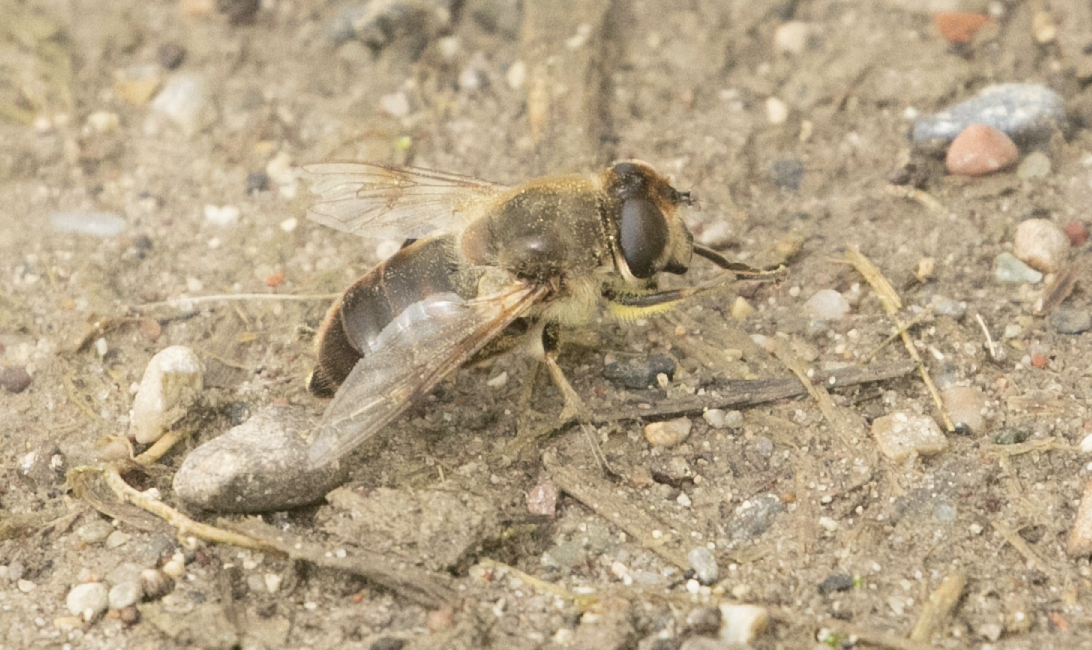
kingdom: Animalia
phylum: Arthropoda
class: Insecta
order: Diptera
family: Syrphidae
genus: Eristalis
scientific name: Eristalis tenax
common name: Drone fly
